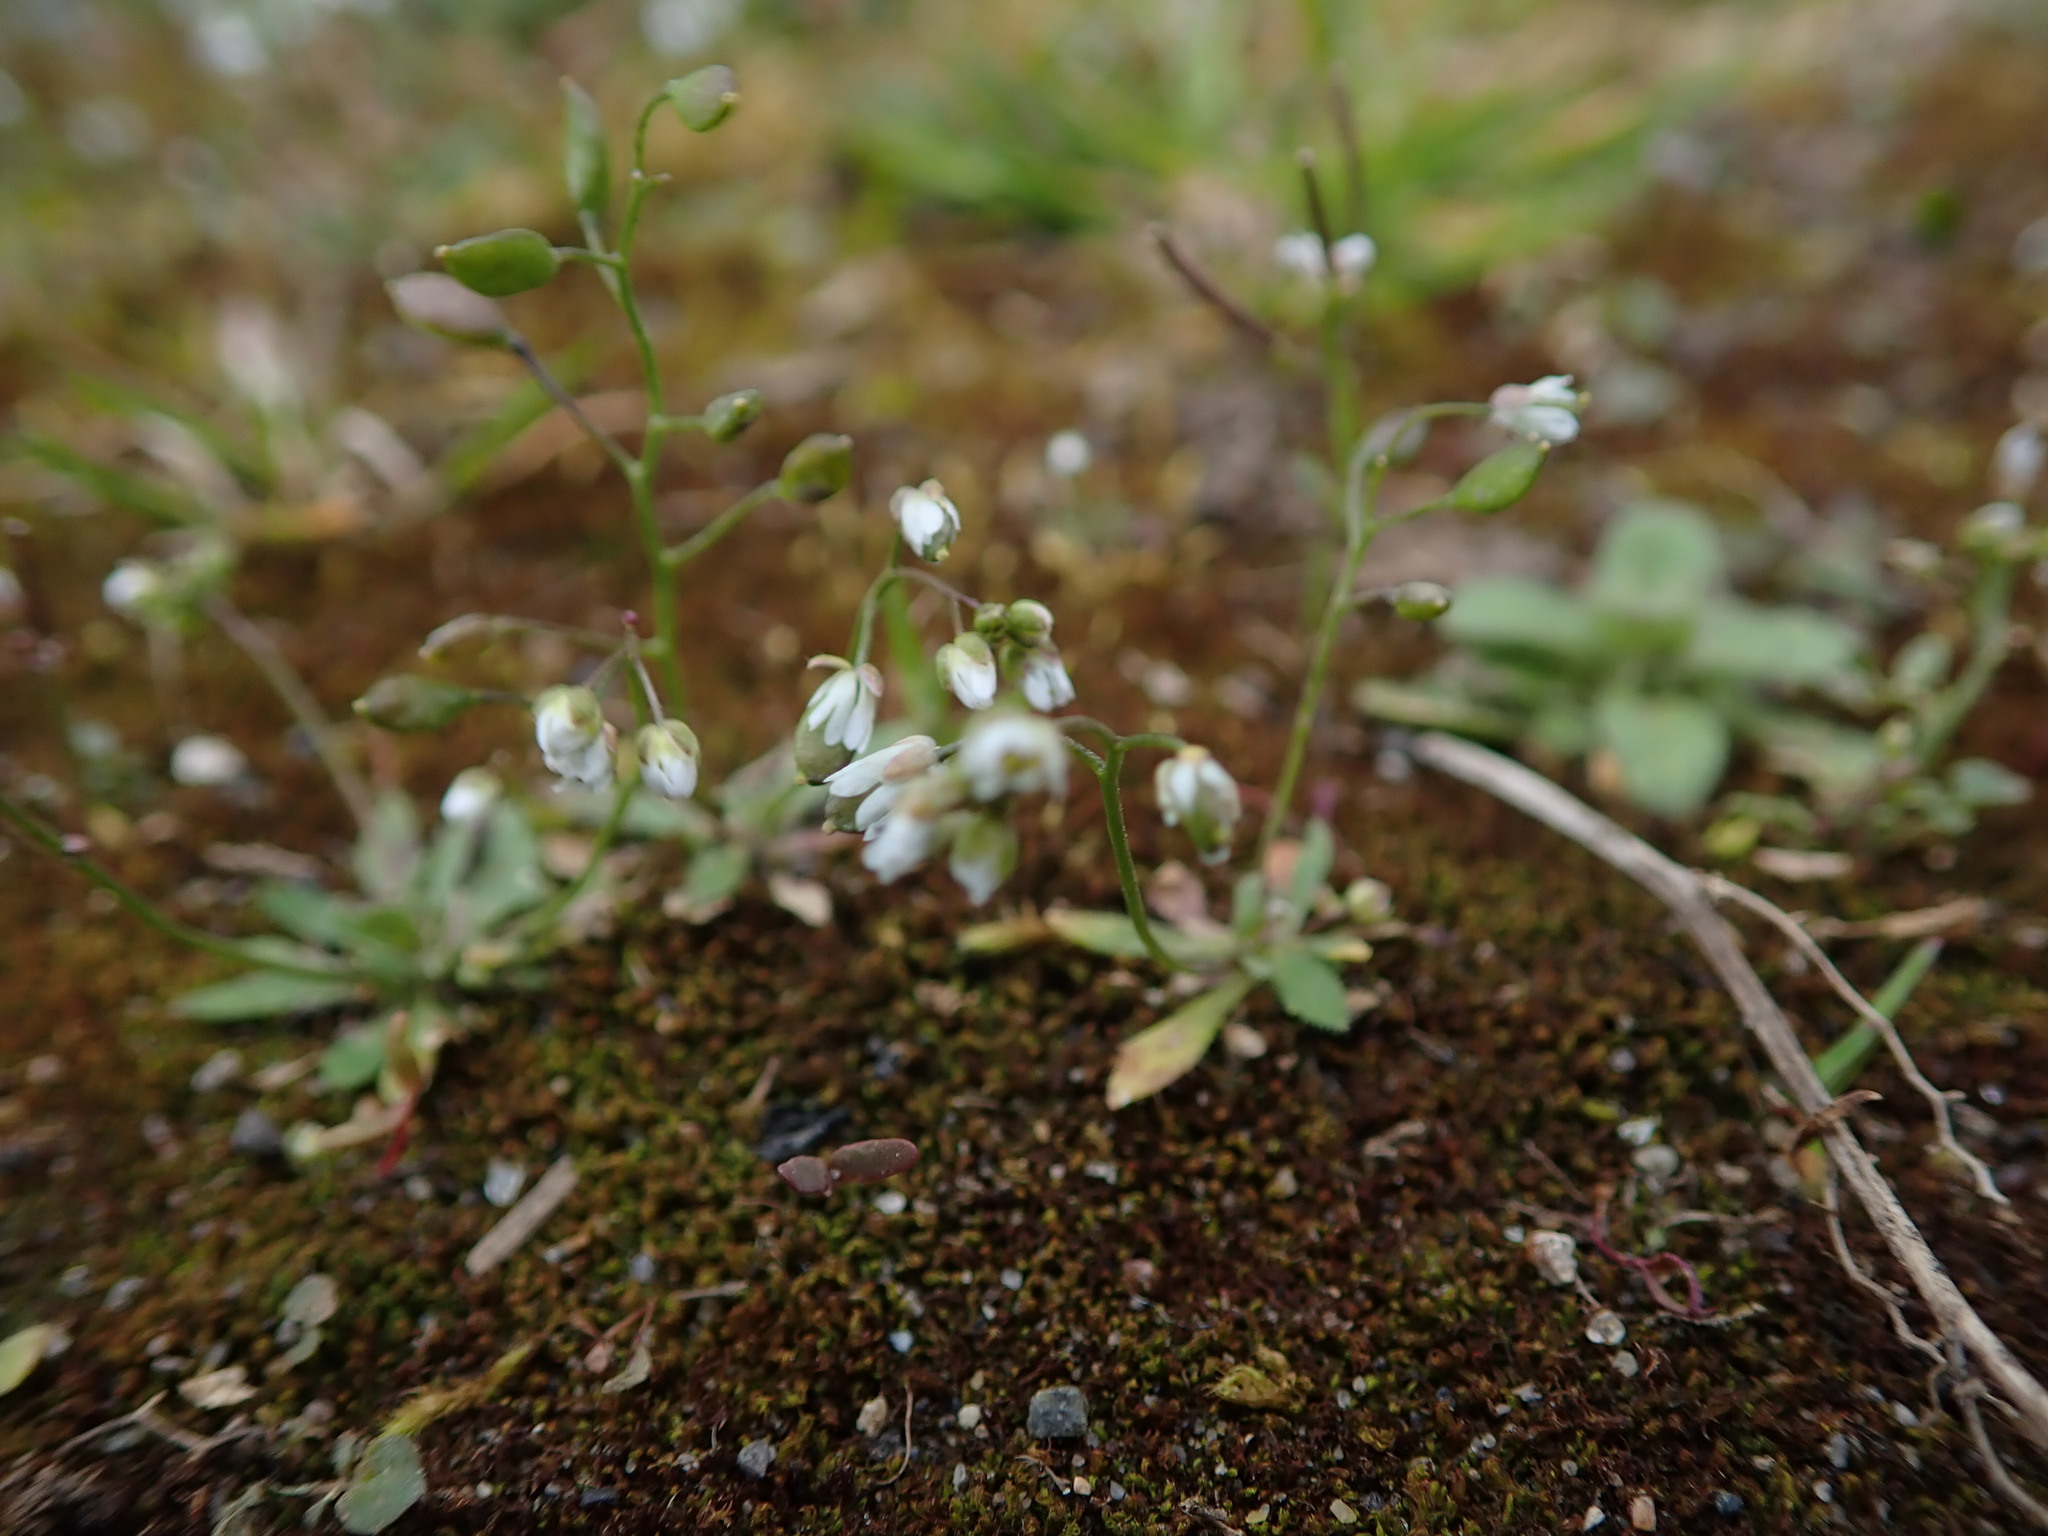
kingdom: Plantae
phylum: Tracheophyta
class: Magnoliopsida
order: Brassicales
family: Brassicaceae
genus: Draba
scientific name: Draba verna
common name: Spring draba
